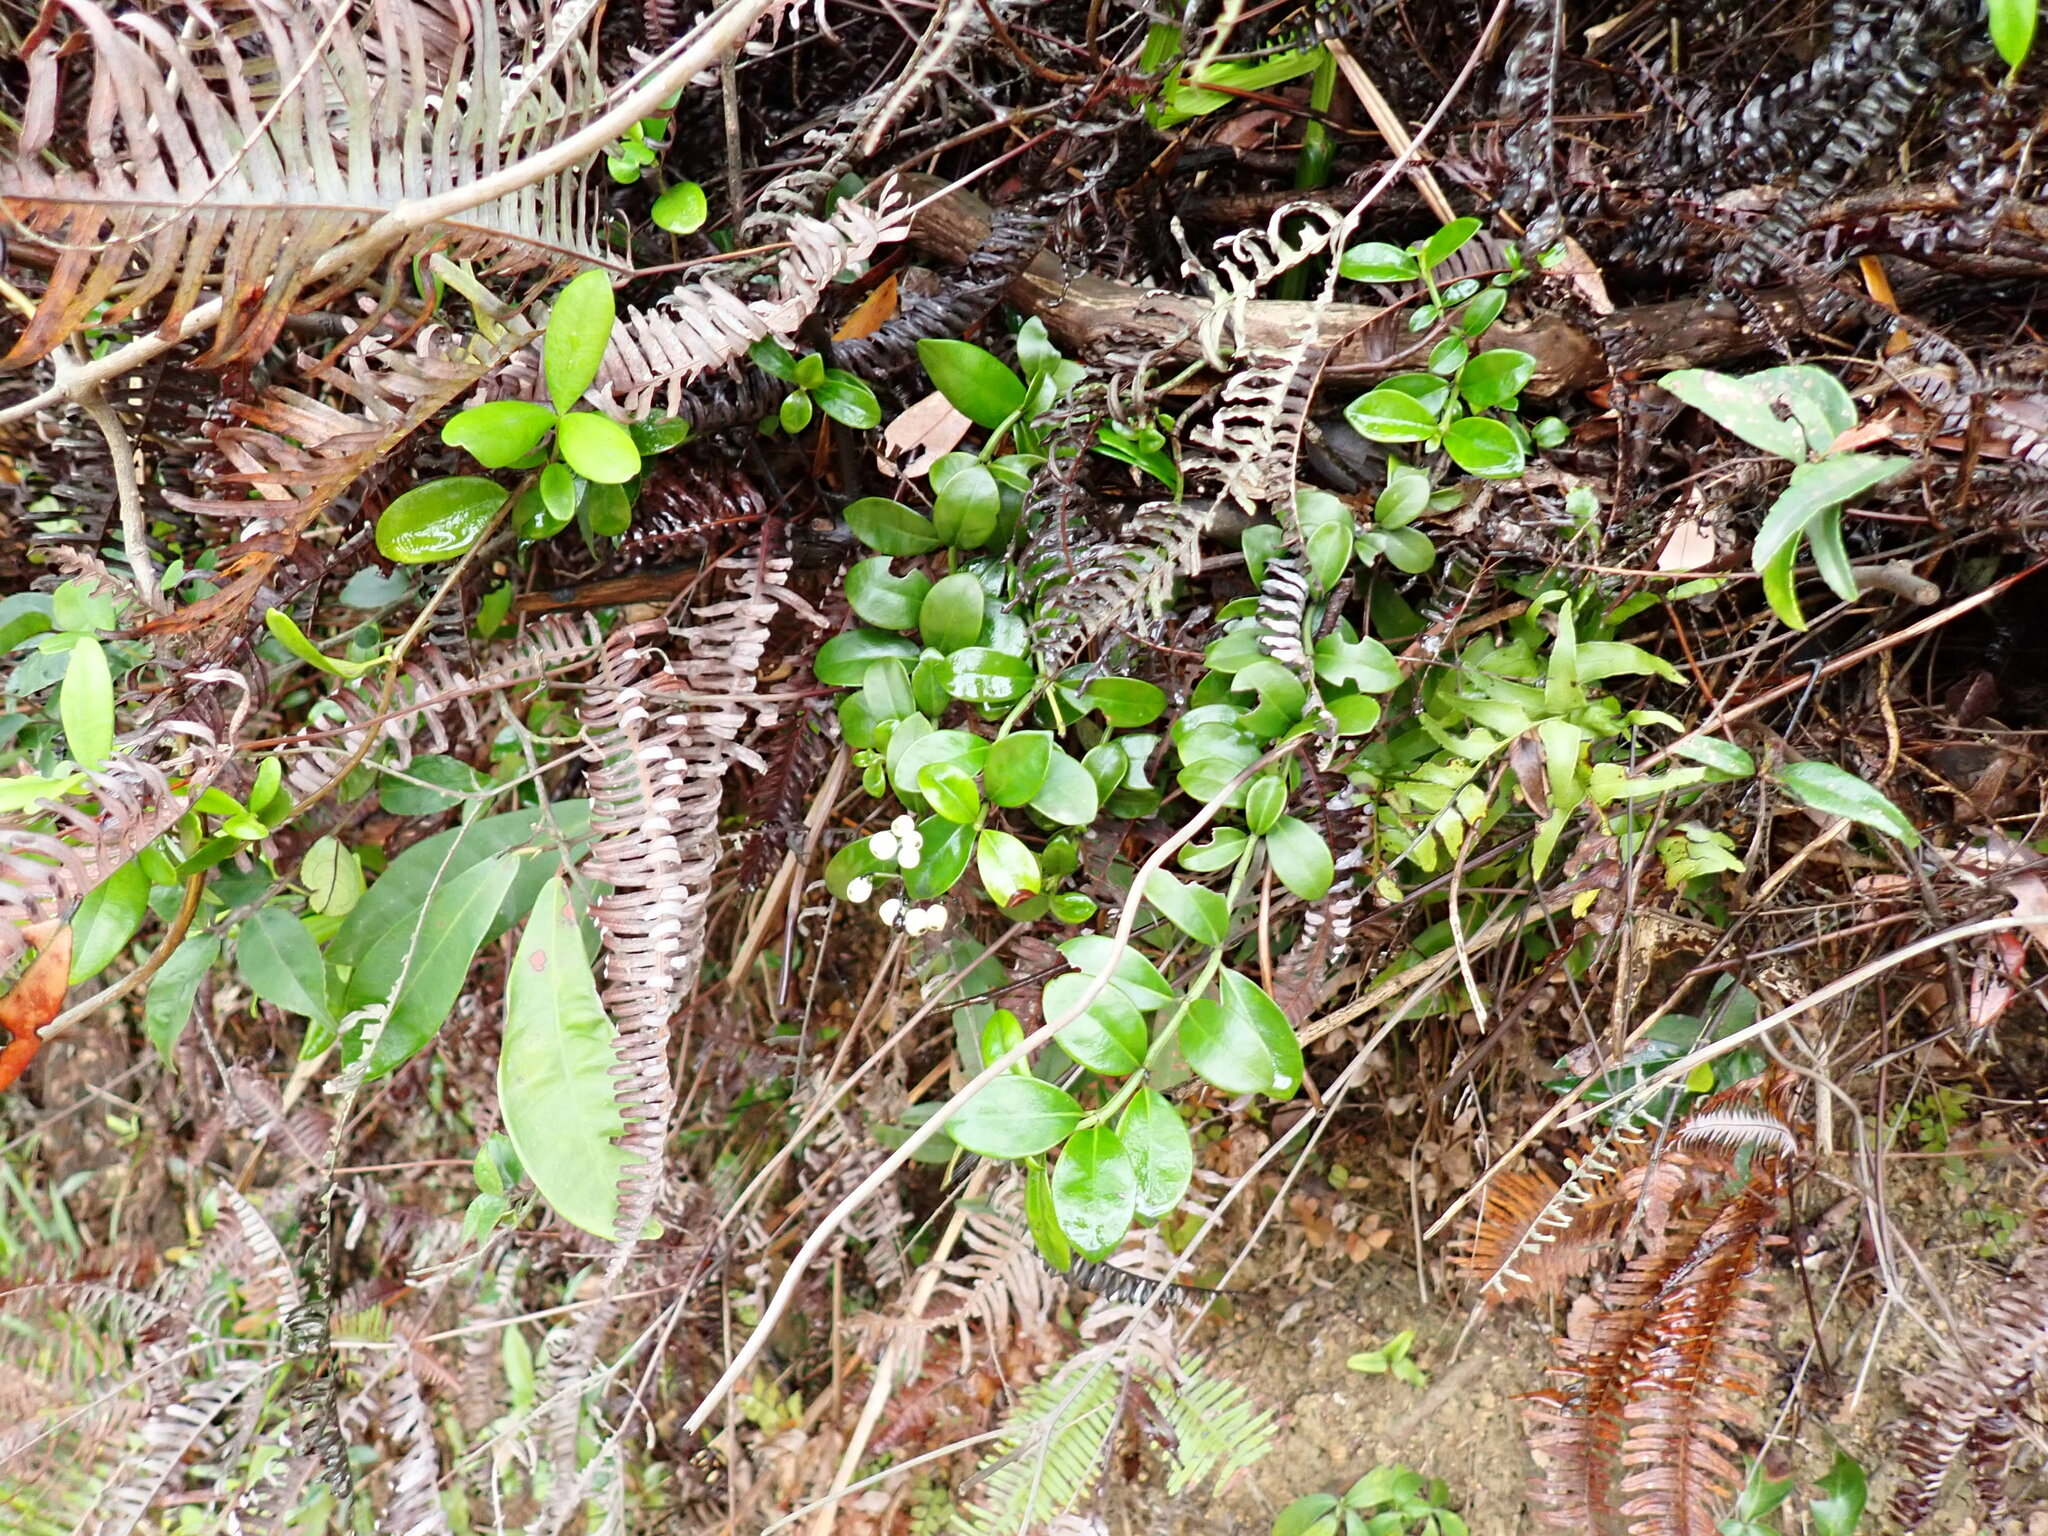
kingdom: Plantae
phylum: Tracheophyta
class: Magnoliopsida
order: Gentianales
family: Rubiaceae
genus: Psychotria
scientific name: Psychotria serpens
